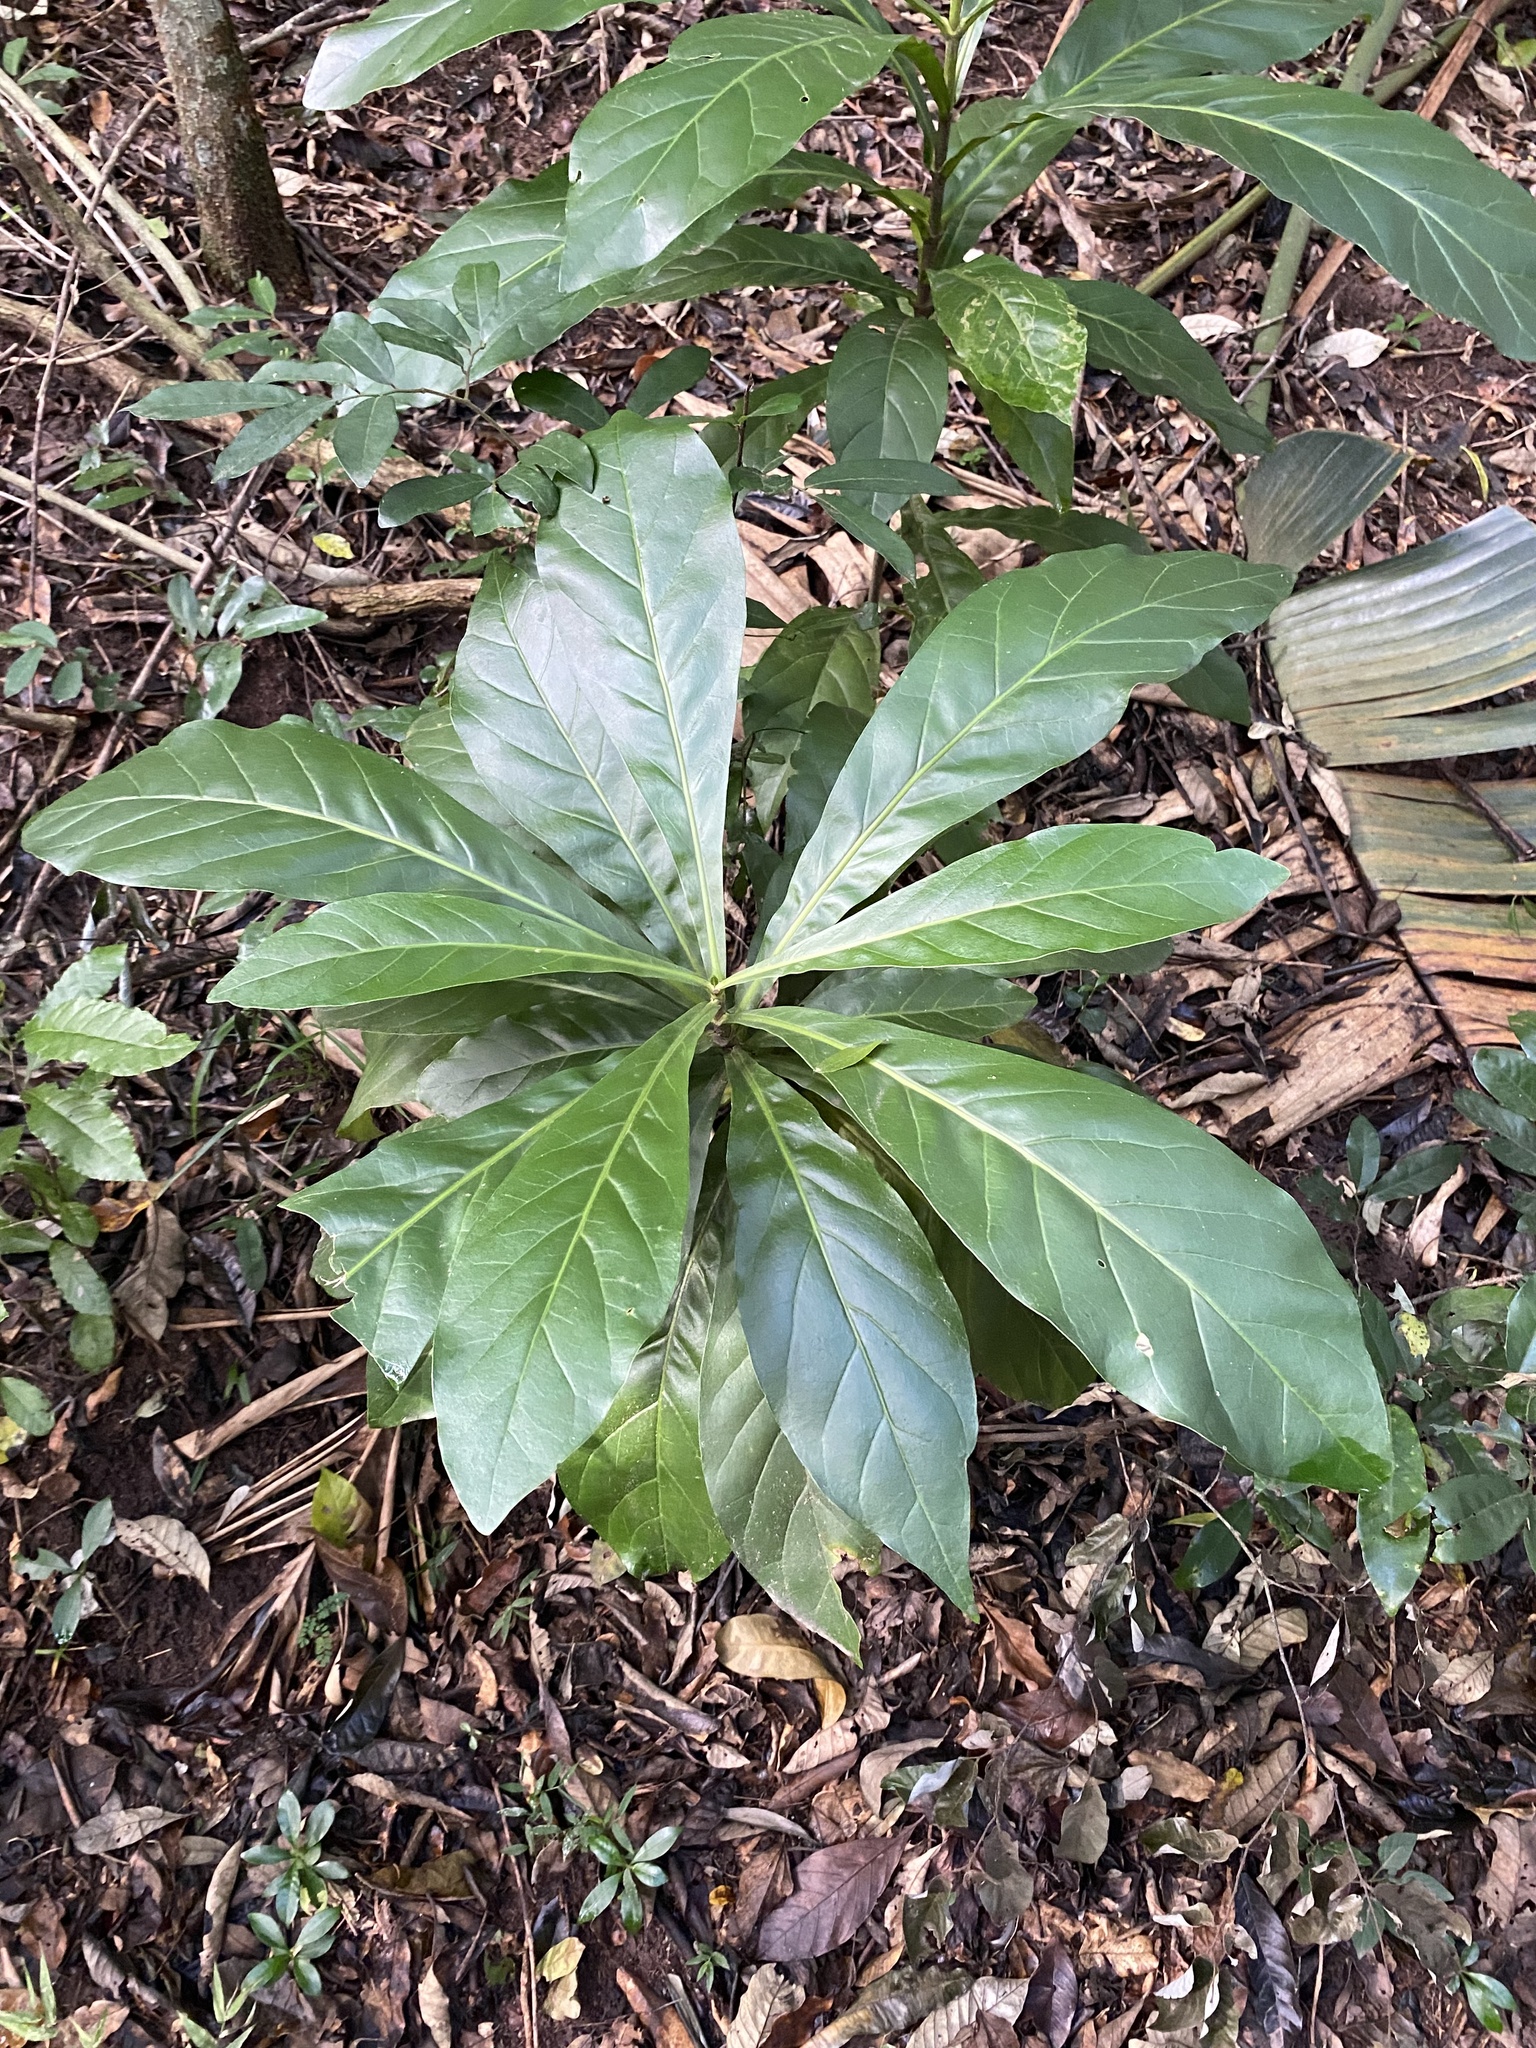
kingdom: Plantae
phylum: Tracheophyta
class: Magnoliopsida
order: Ericales
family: Lecythidaceae
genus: Barringtonia
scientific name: Barringtonia racemosa
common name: Brackwater mangrove
